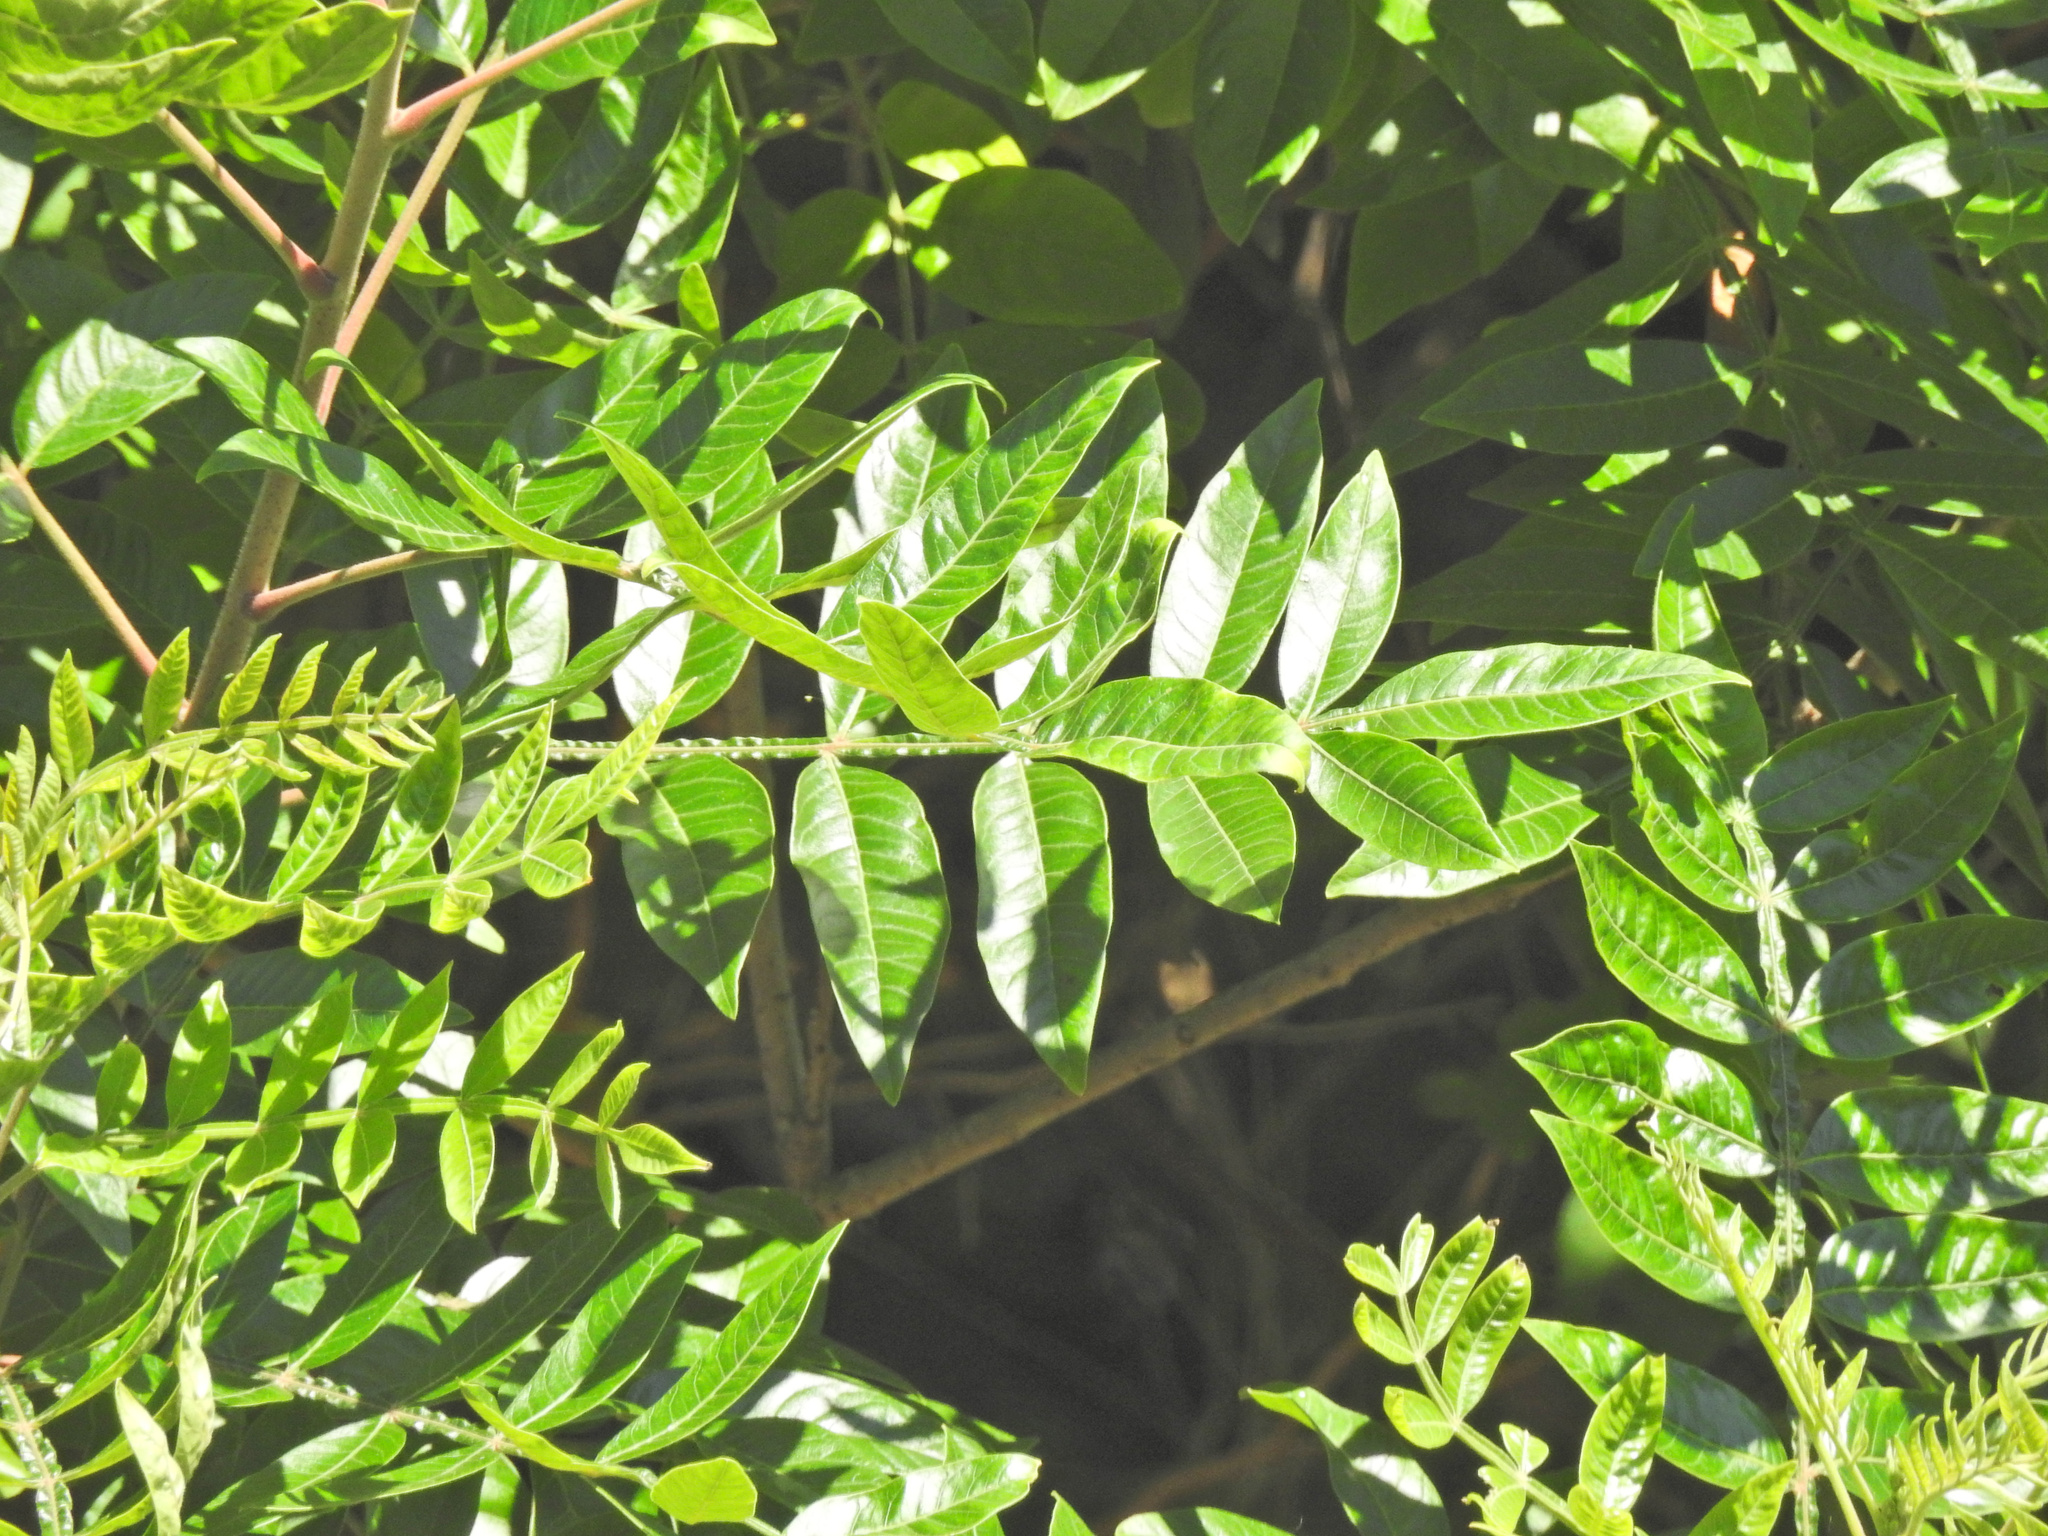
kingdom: Plantae
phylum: Tracheophyta
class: Magnoliopsida
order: Sapindales
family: Anacardiaceae
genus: Rhus
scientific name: Rhus copallina
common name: Shining sumac
